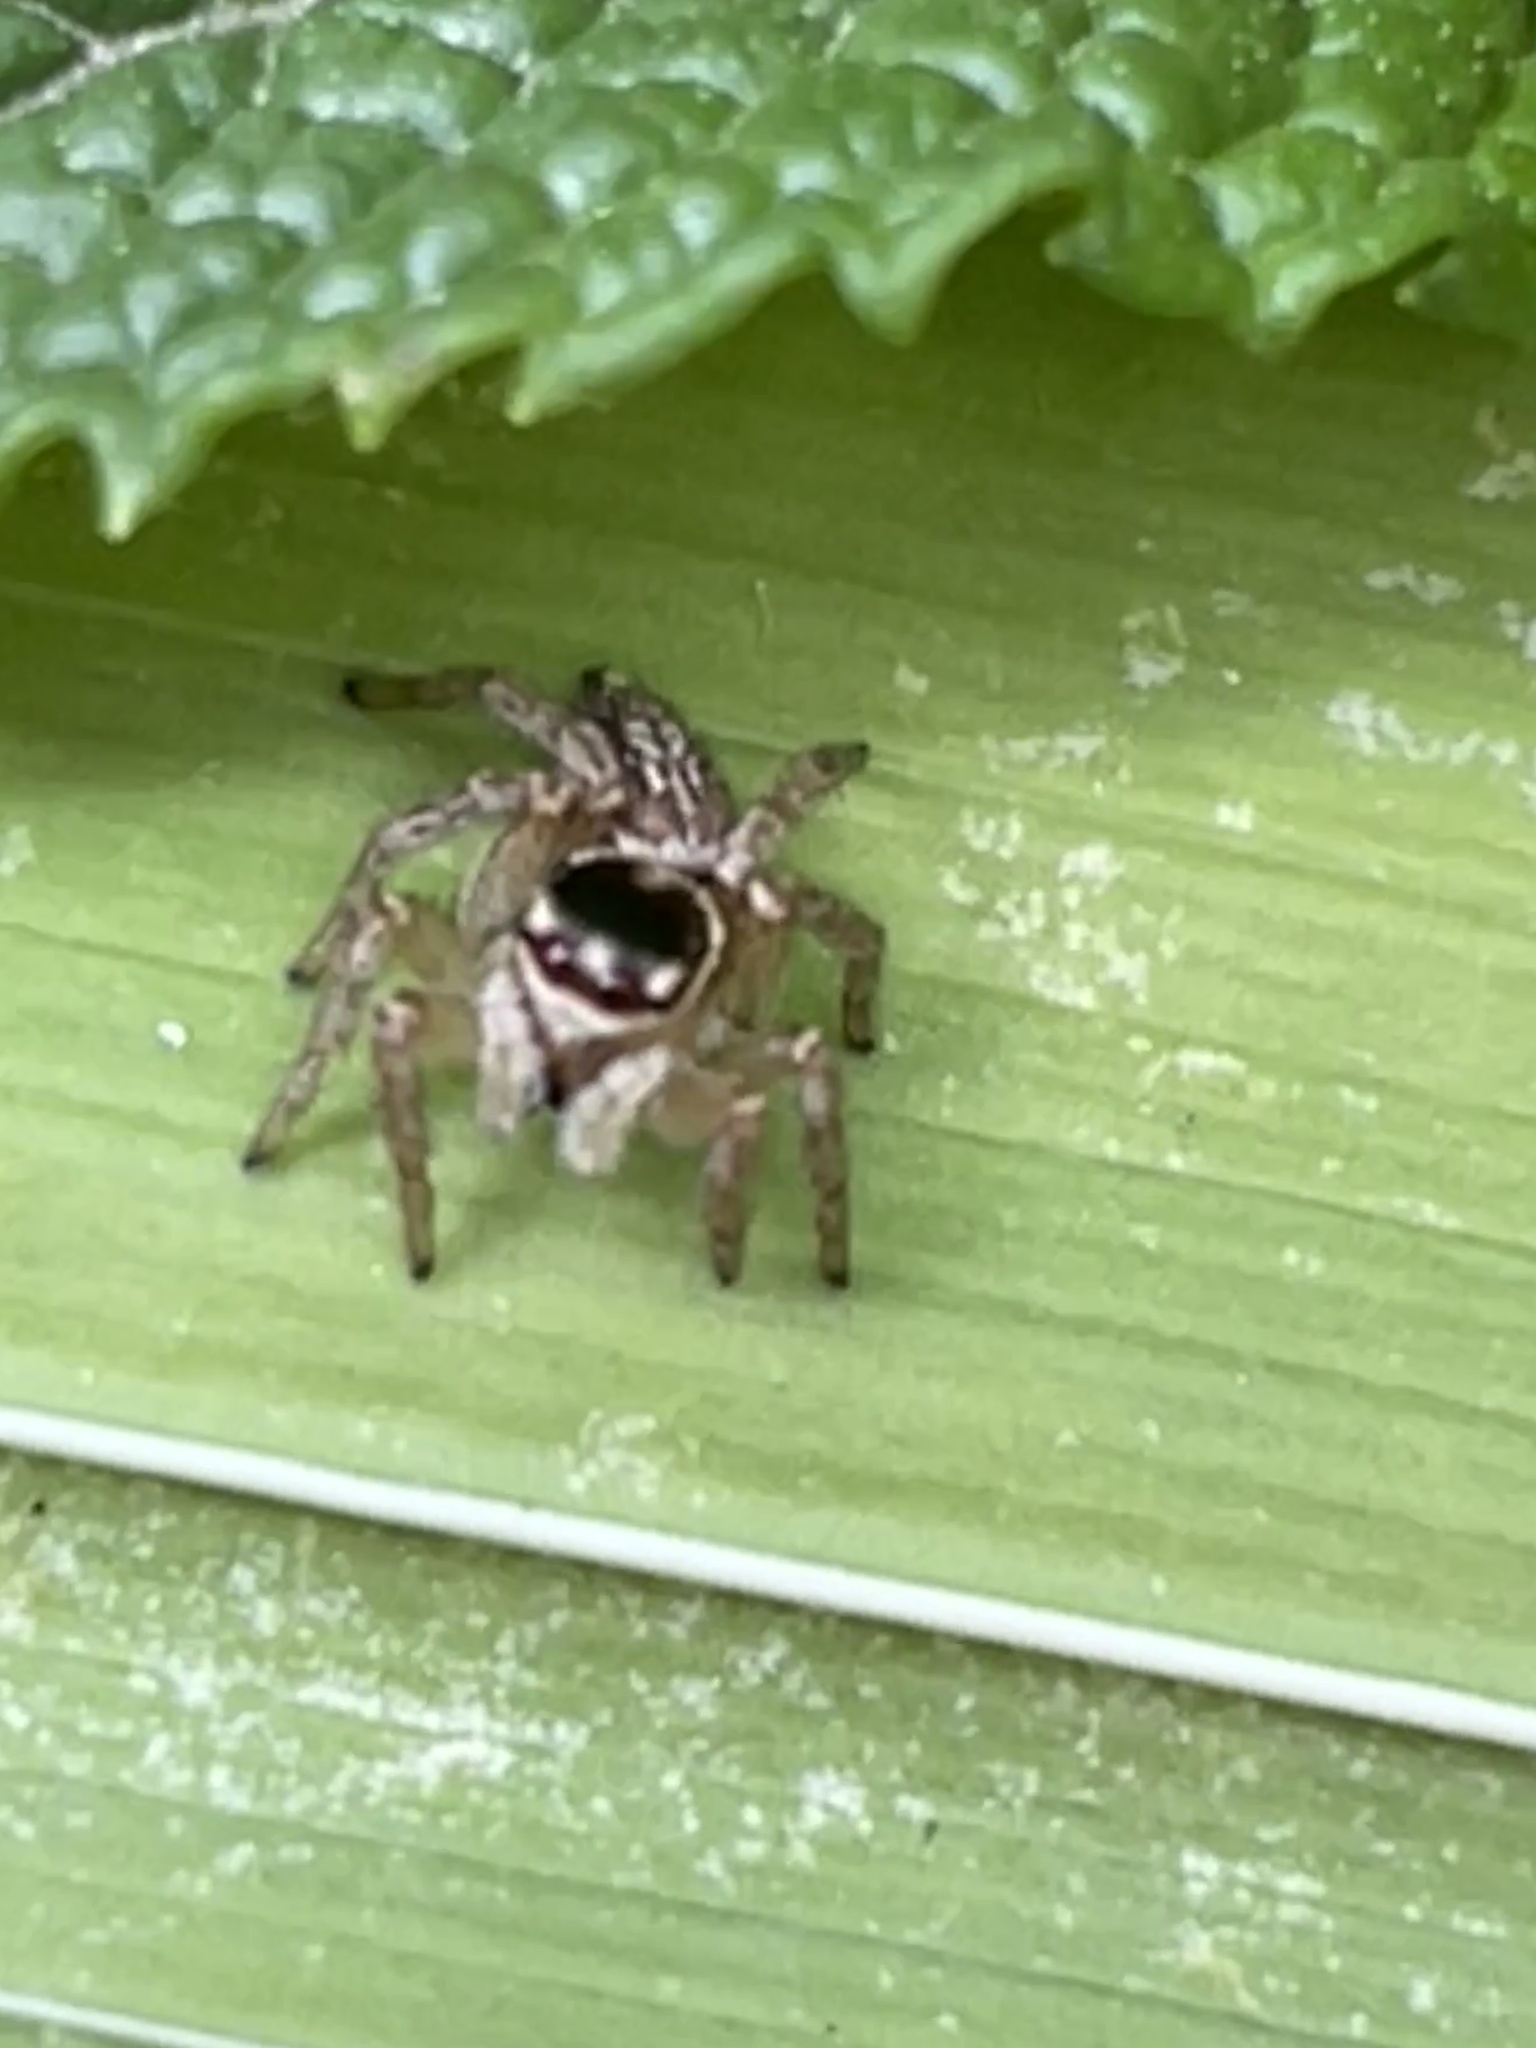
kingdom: Animalia
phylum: Arthropoda
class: Arachnida
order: Araneae
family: Salticidae
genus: Maratus
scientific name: Maratus griseus
